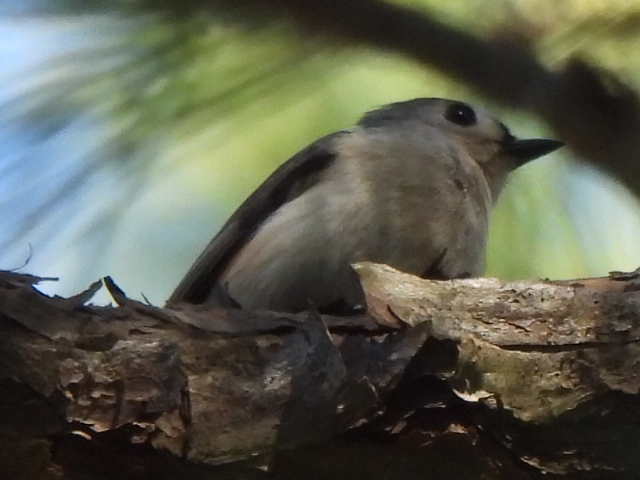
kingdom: Animalia
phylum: Chordata
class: Aves
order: Passeriformes
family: Paridae
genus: Baeolophus
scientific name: Baeolophus bicolor
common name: Tufted titmouse
